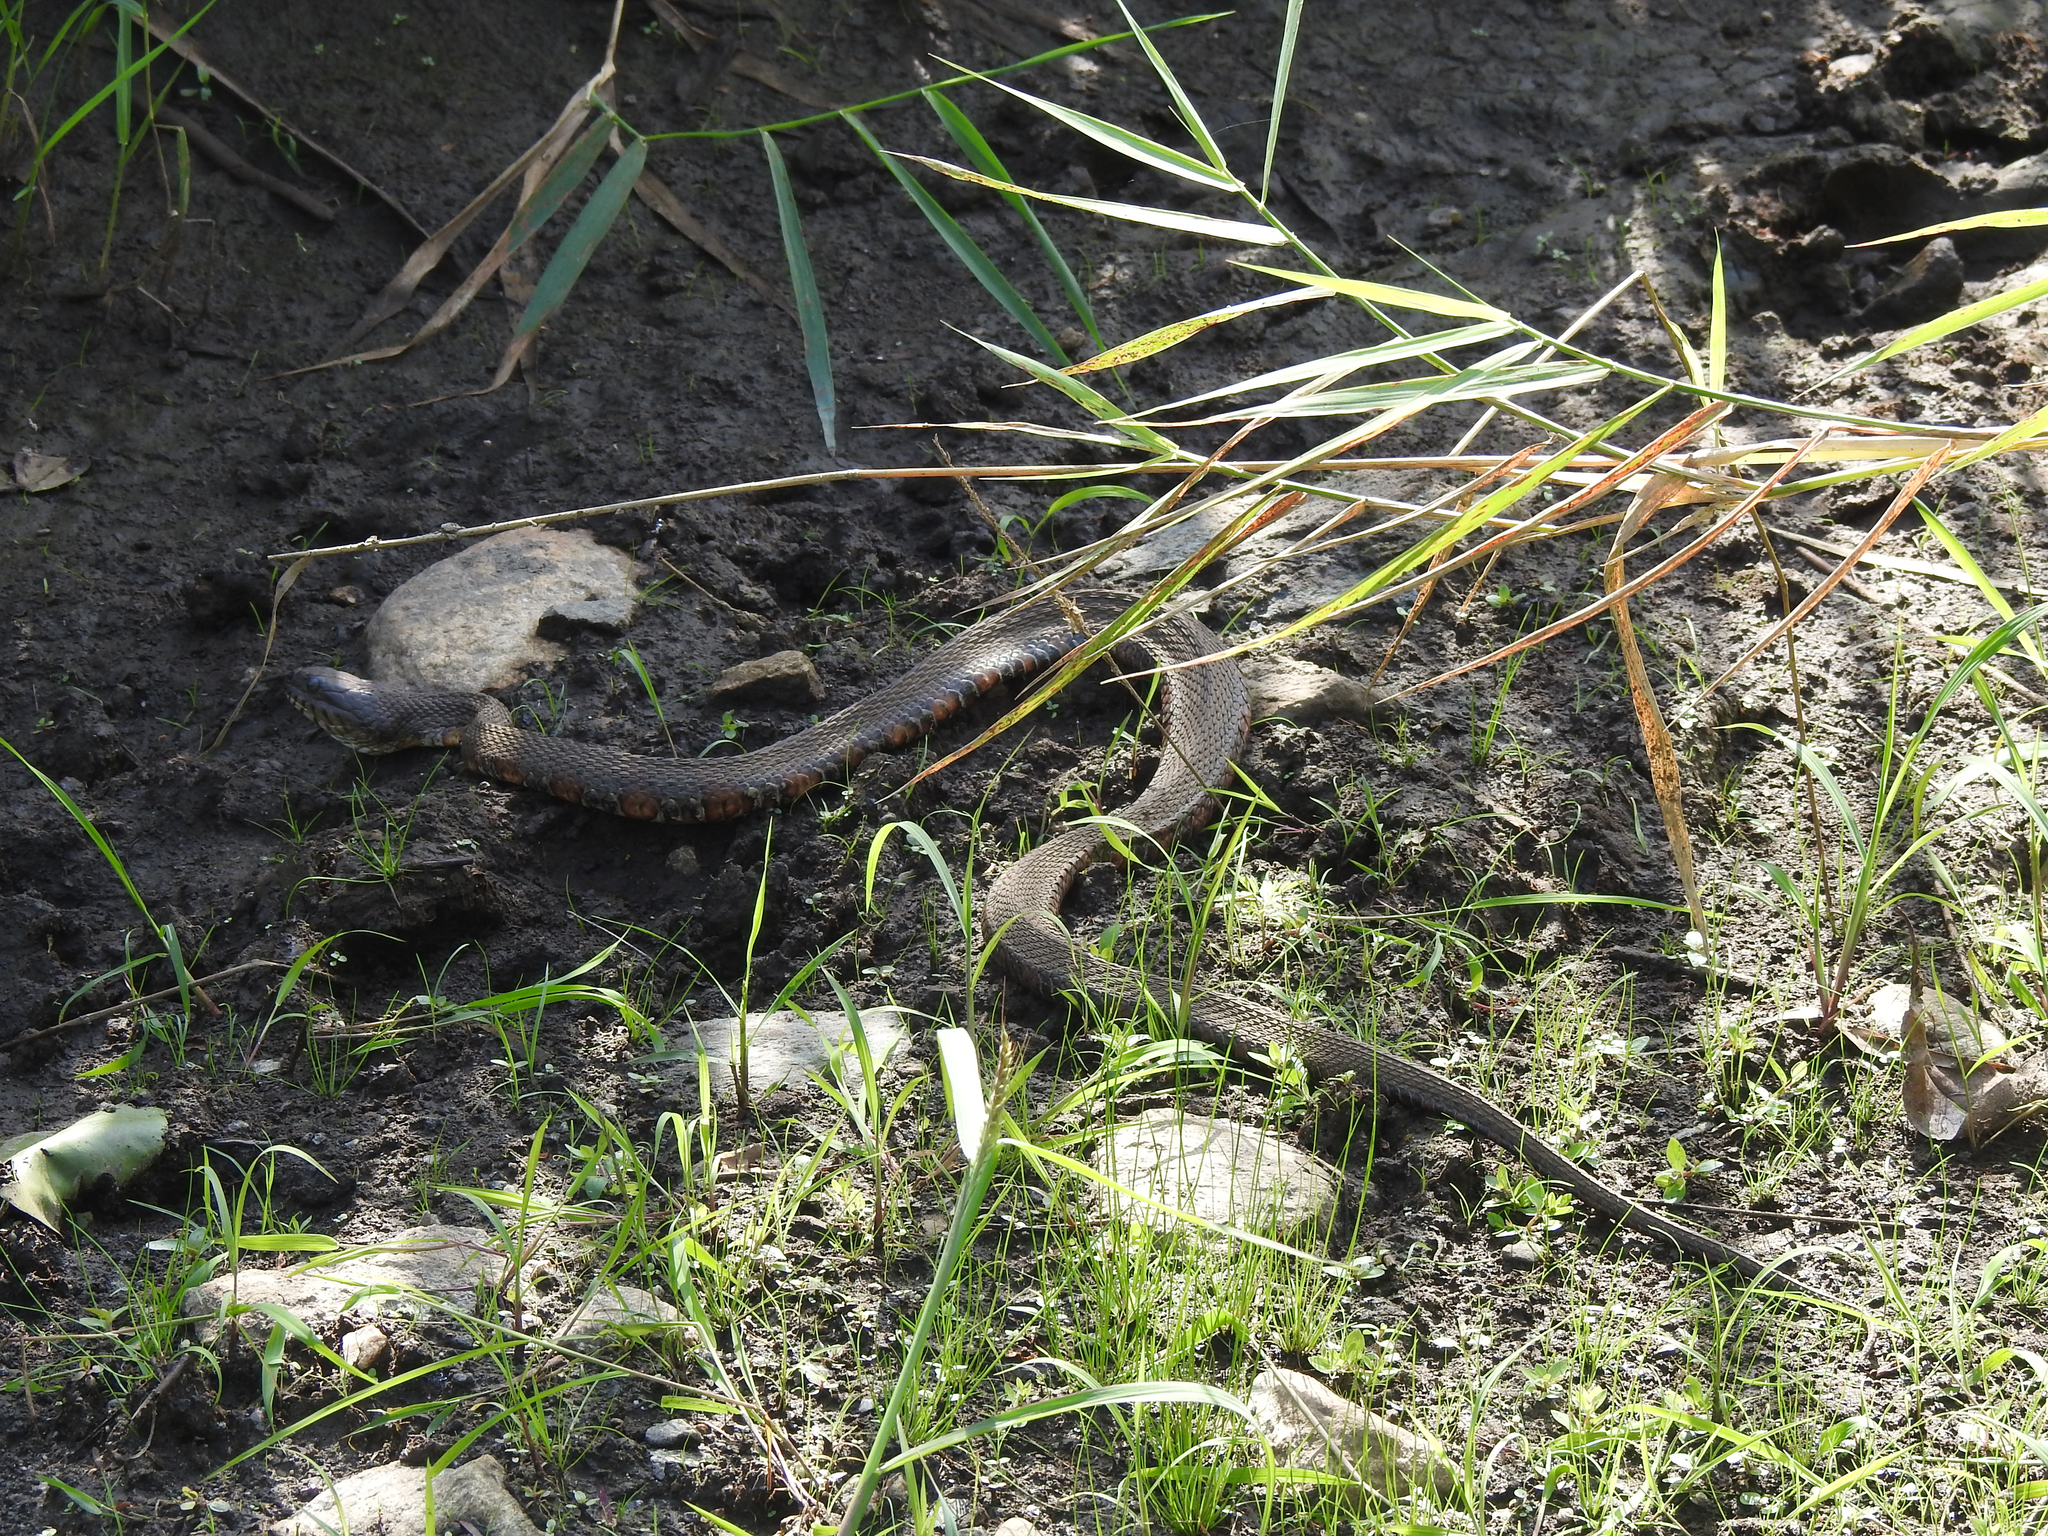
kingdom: Animalia
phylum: Chordata
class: Squamata
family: Colubridae
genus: Nerodia
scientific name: Nerodia sipedon
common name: Northern water snake
